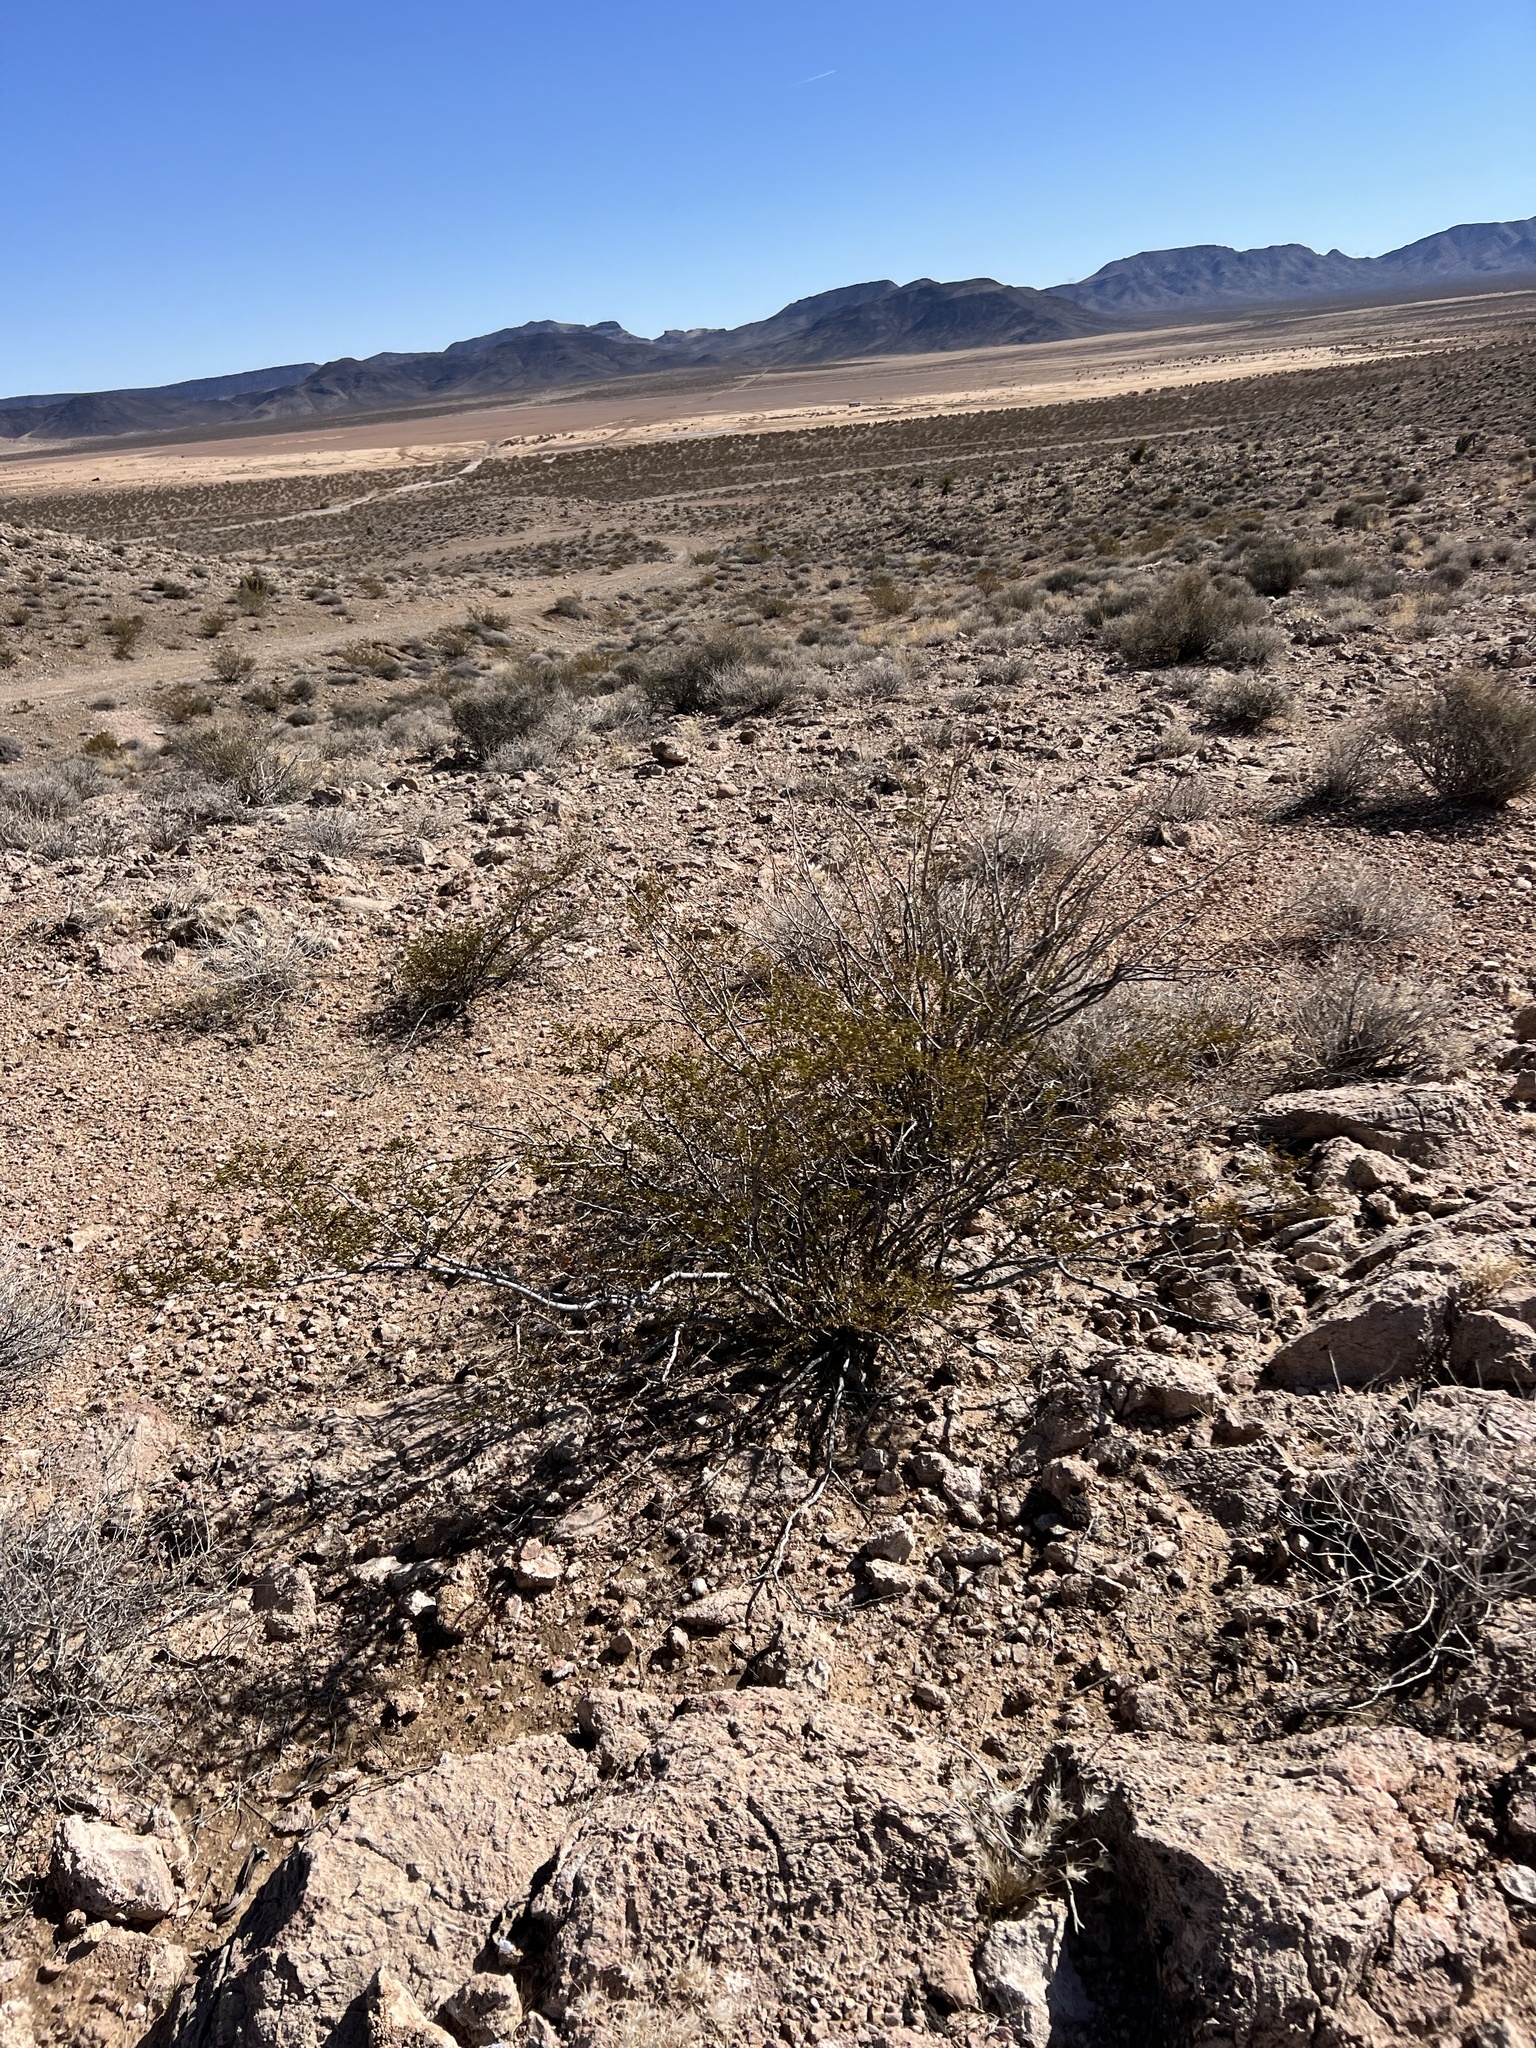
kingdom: Plantae
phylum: Tracheophyta
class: Magnoliopsida
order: Zygophyllales
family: Zygophyllaceae
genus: Larrea
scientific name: Larrea tridentata
